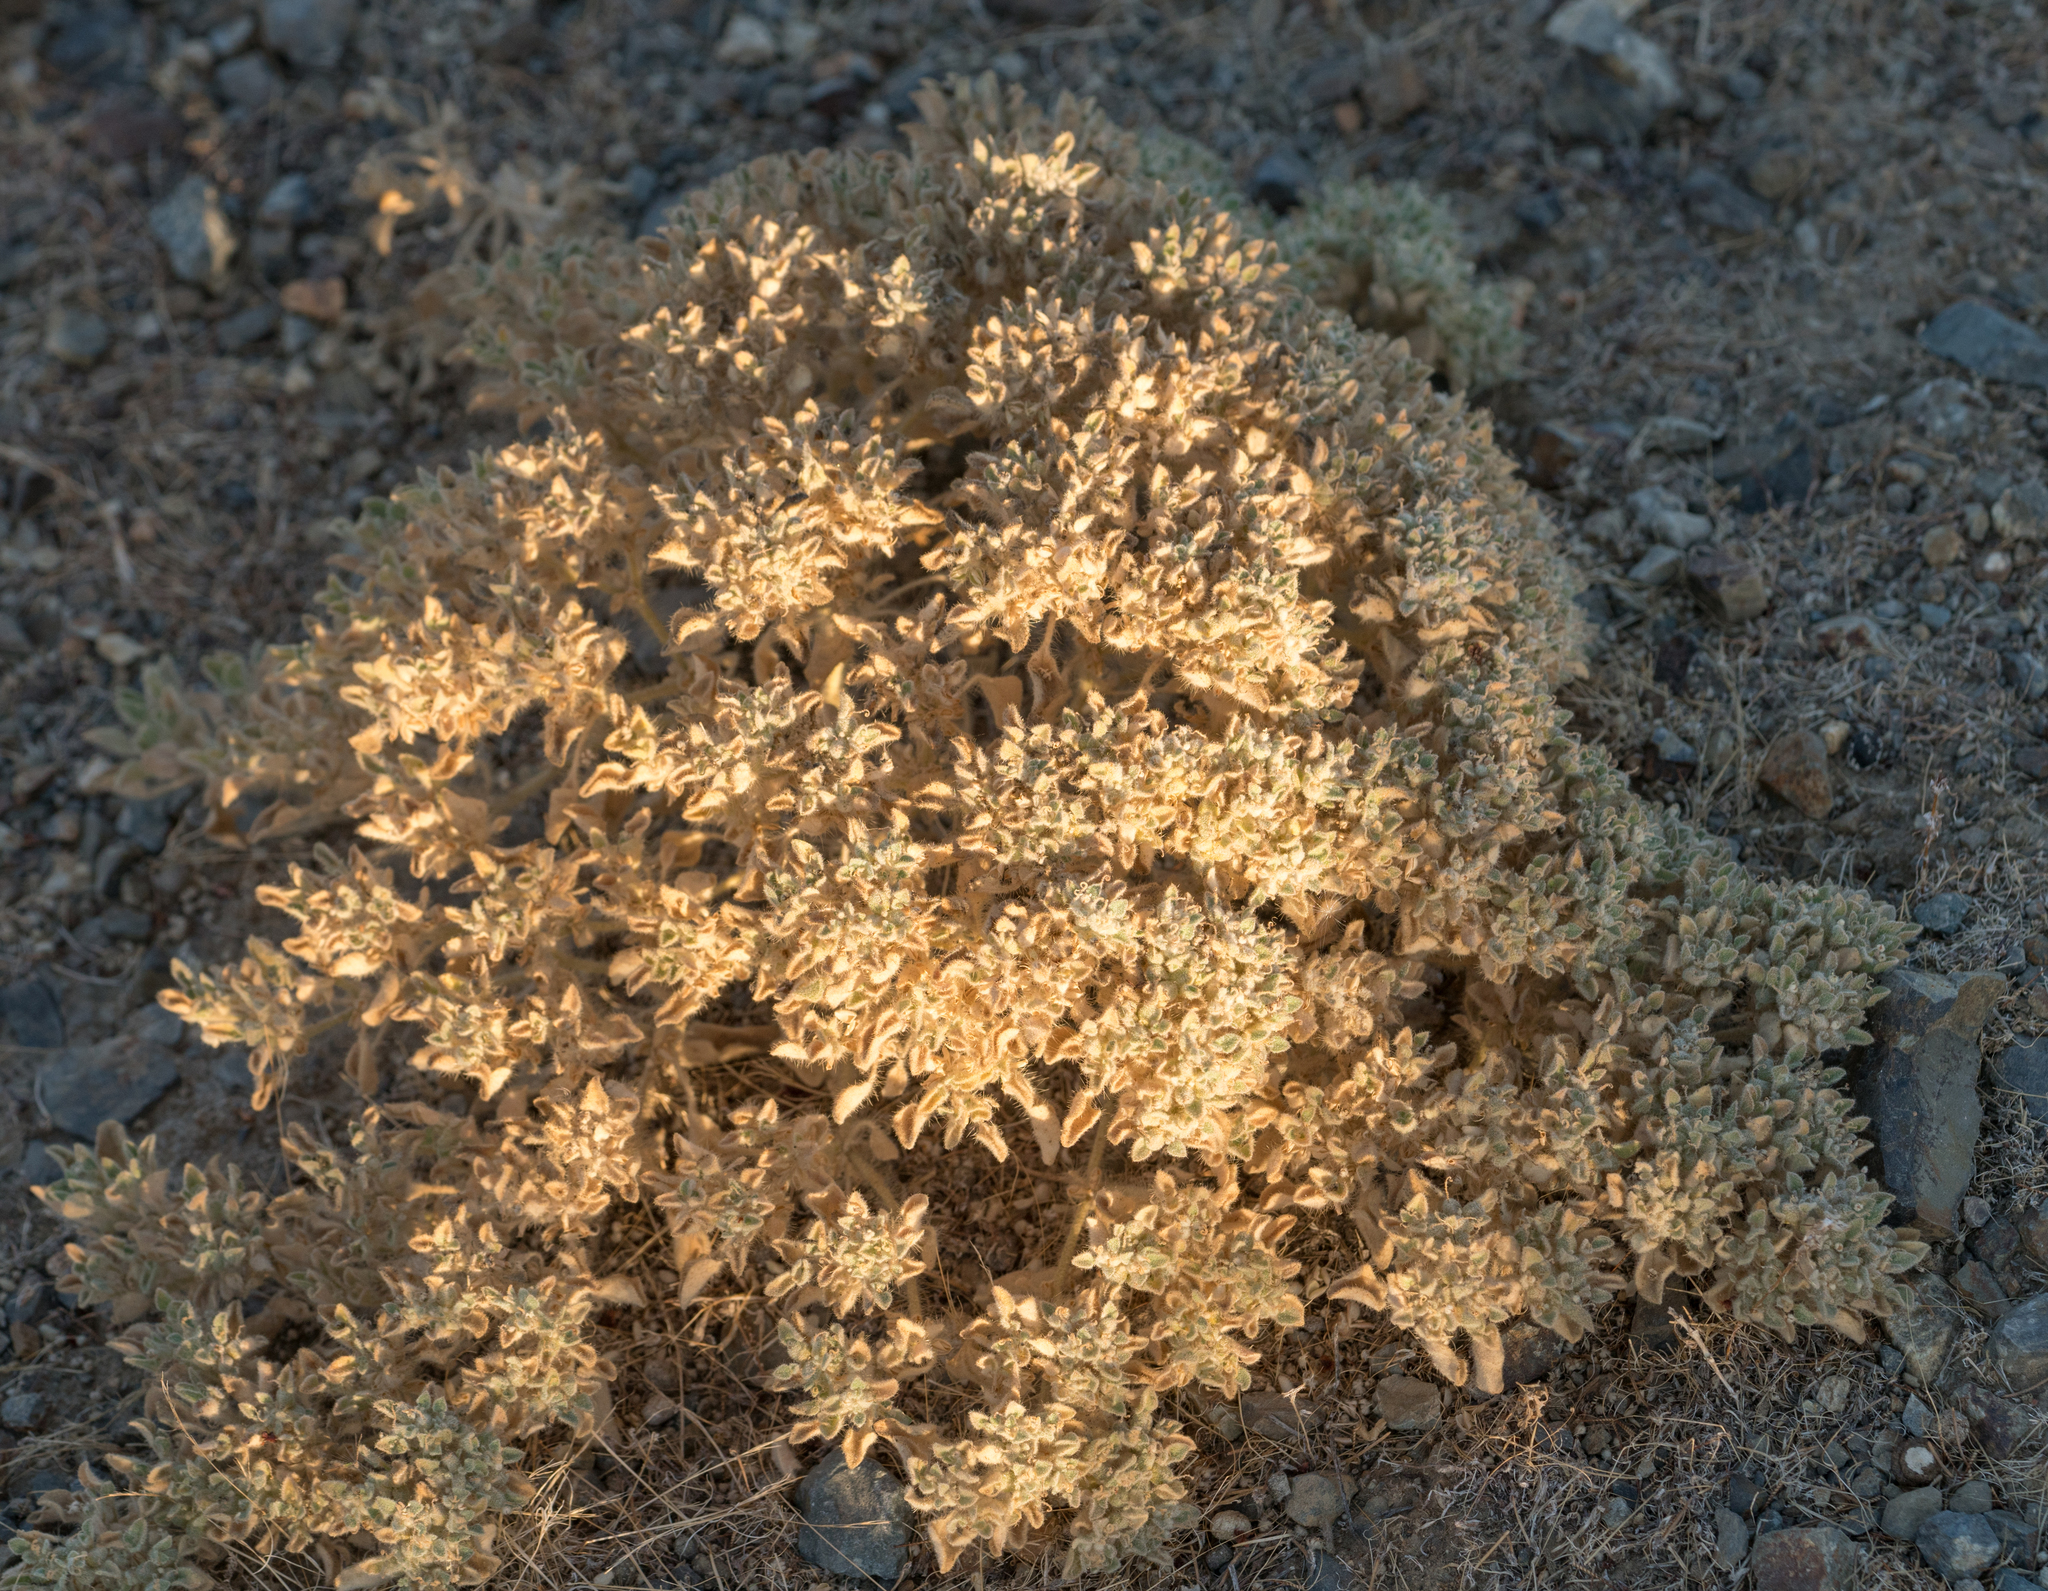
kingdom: Plantae
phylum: Tracheophyta
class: Magnoliopsida
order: Malpighiales
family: Euphorbiaceae
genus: Croton
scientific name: Croton setiger
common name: Dove weed
